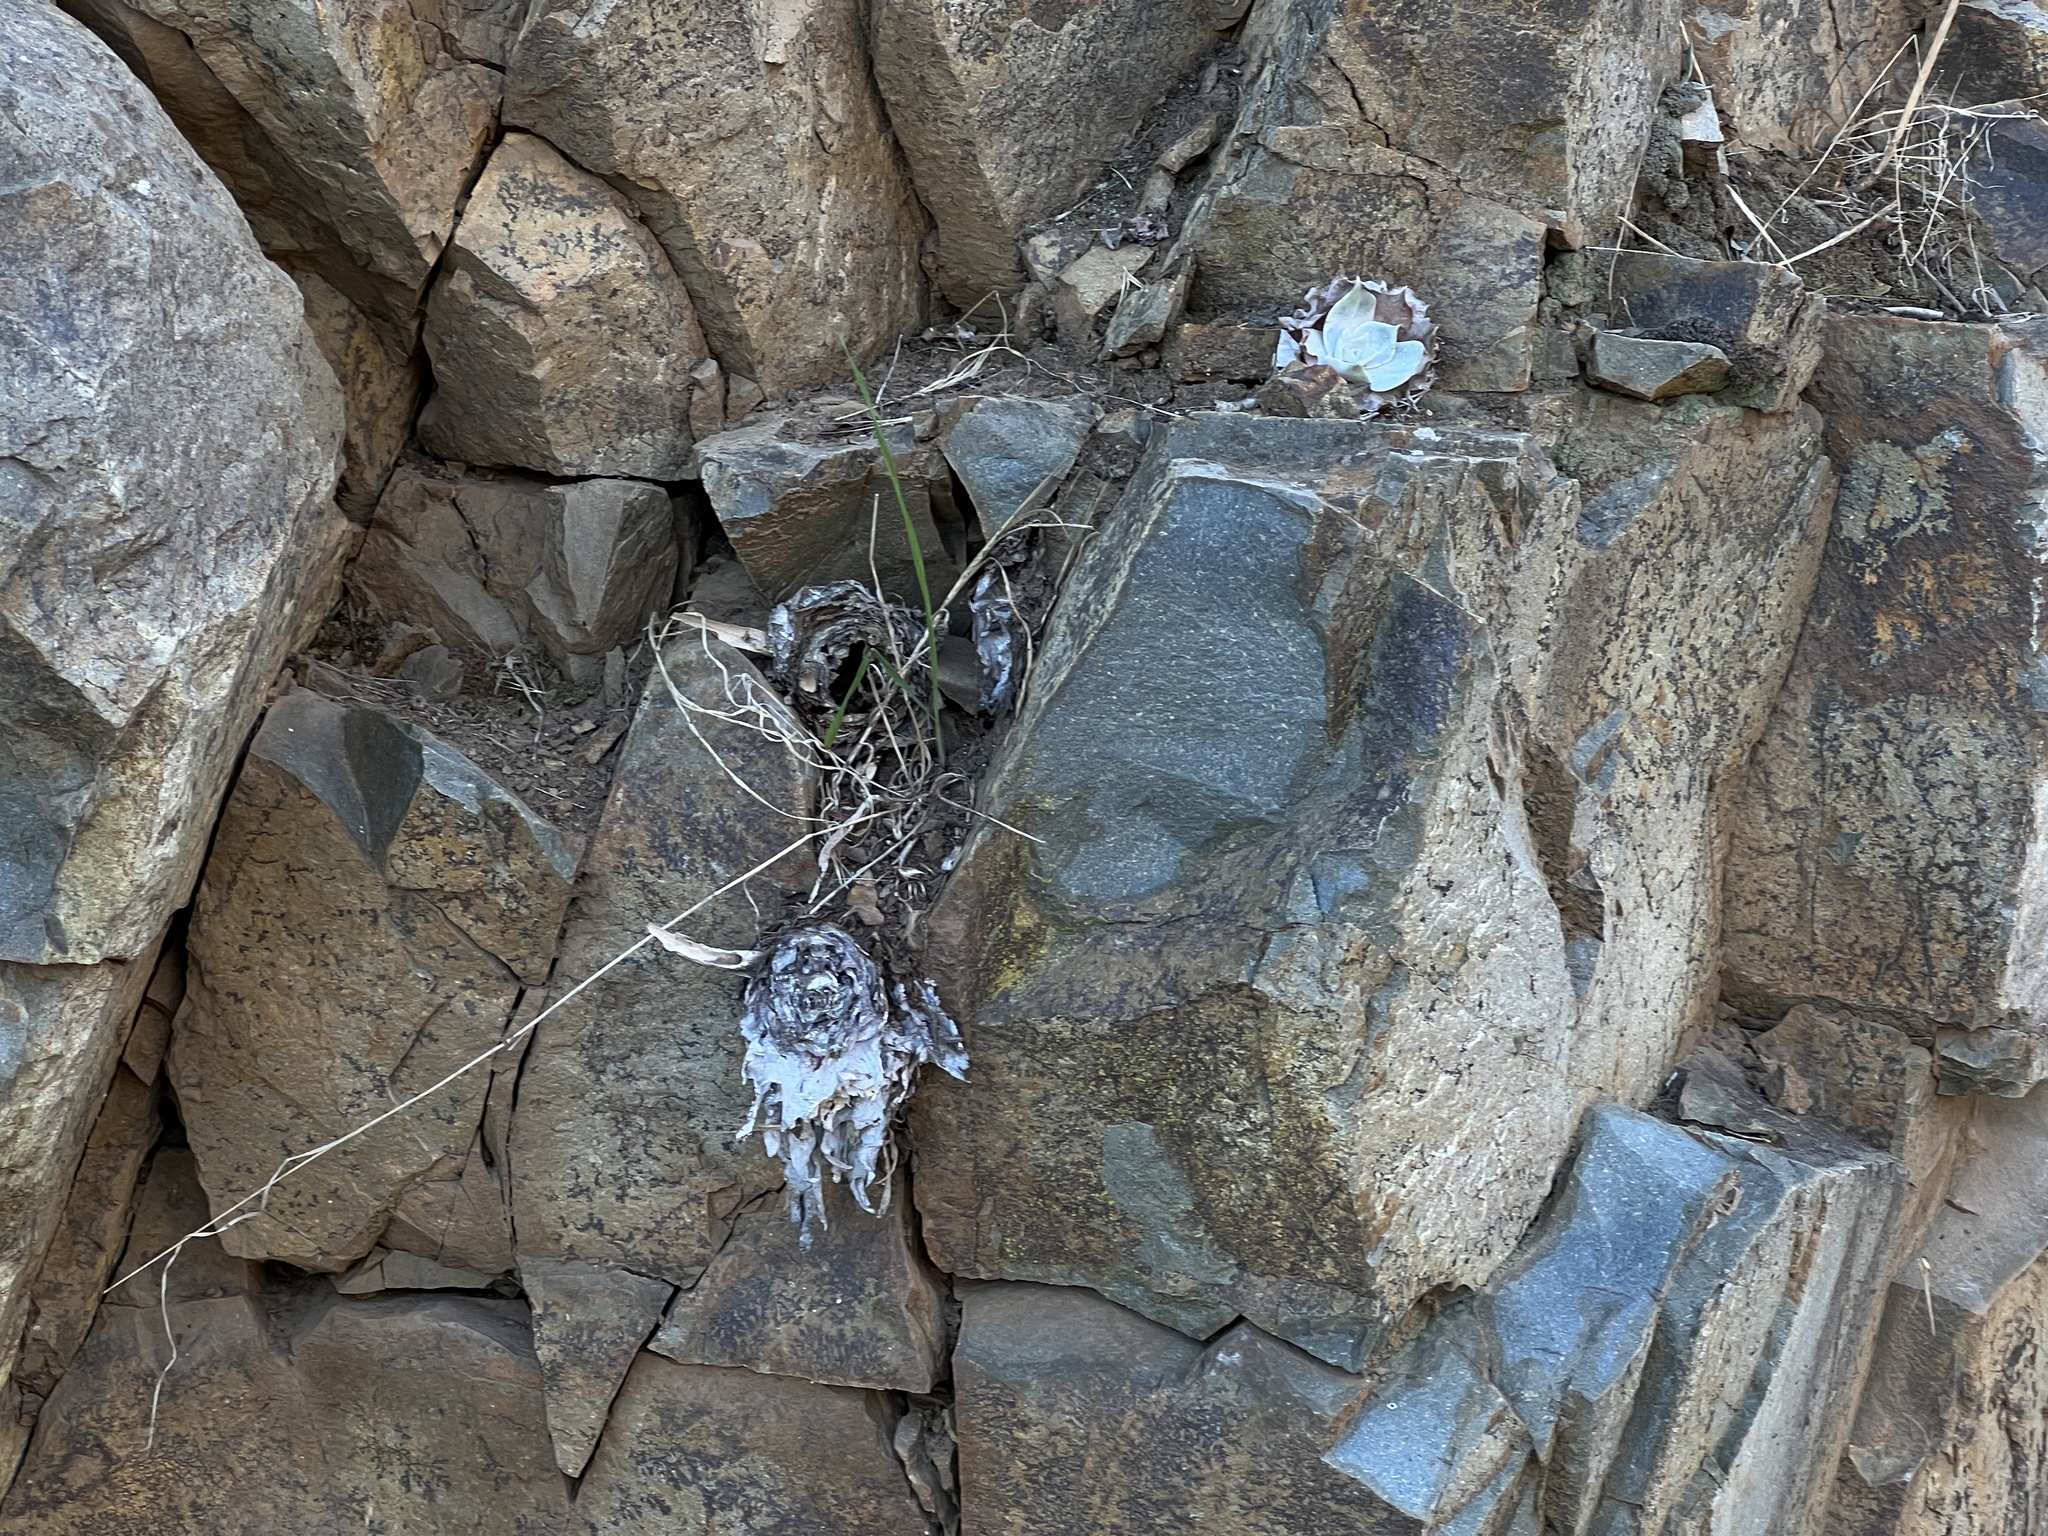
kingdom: Plantae
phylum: Tracheophyta
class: Magnoliopsida
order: Saxifragales
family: Crassulaceae
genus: Dudleya
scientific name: Dudleya pulverulenta
